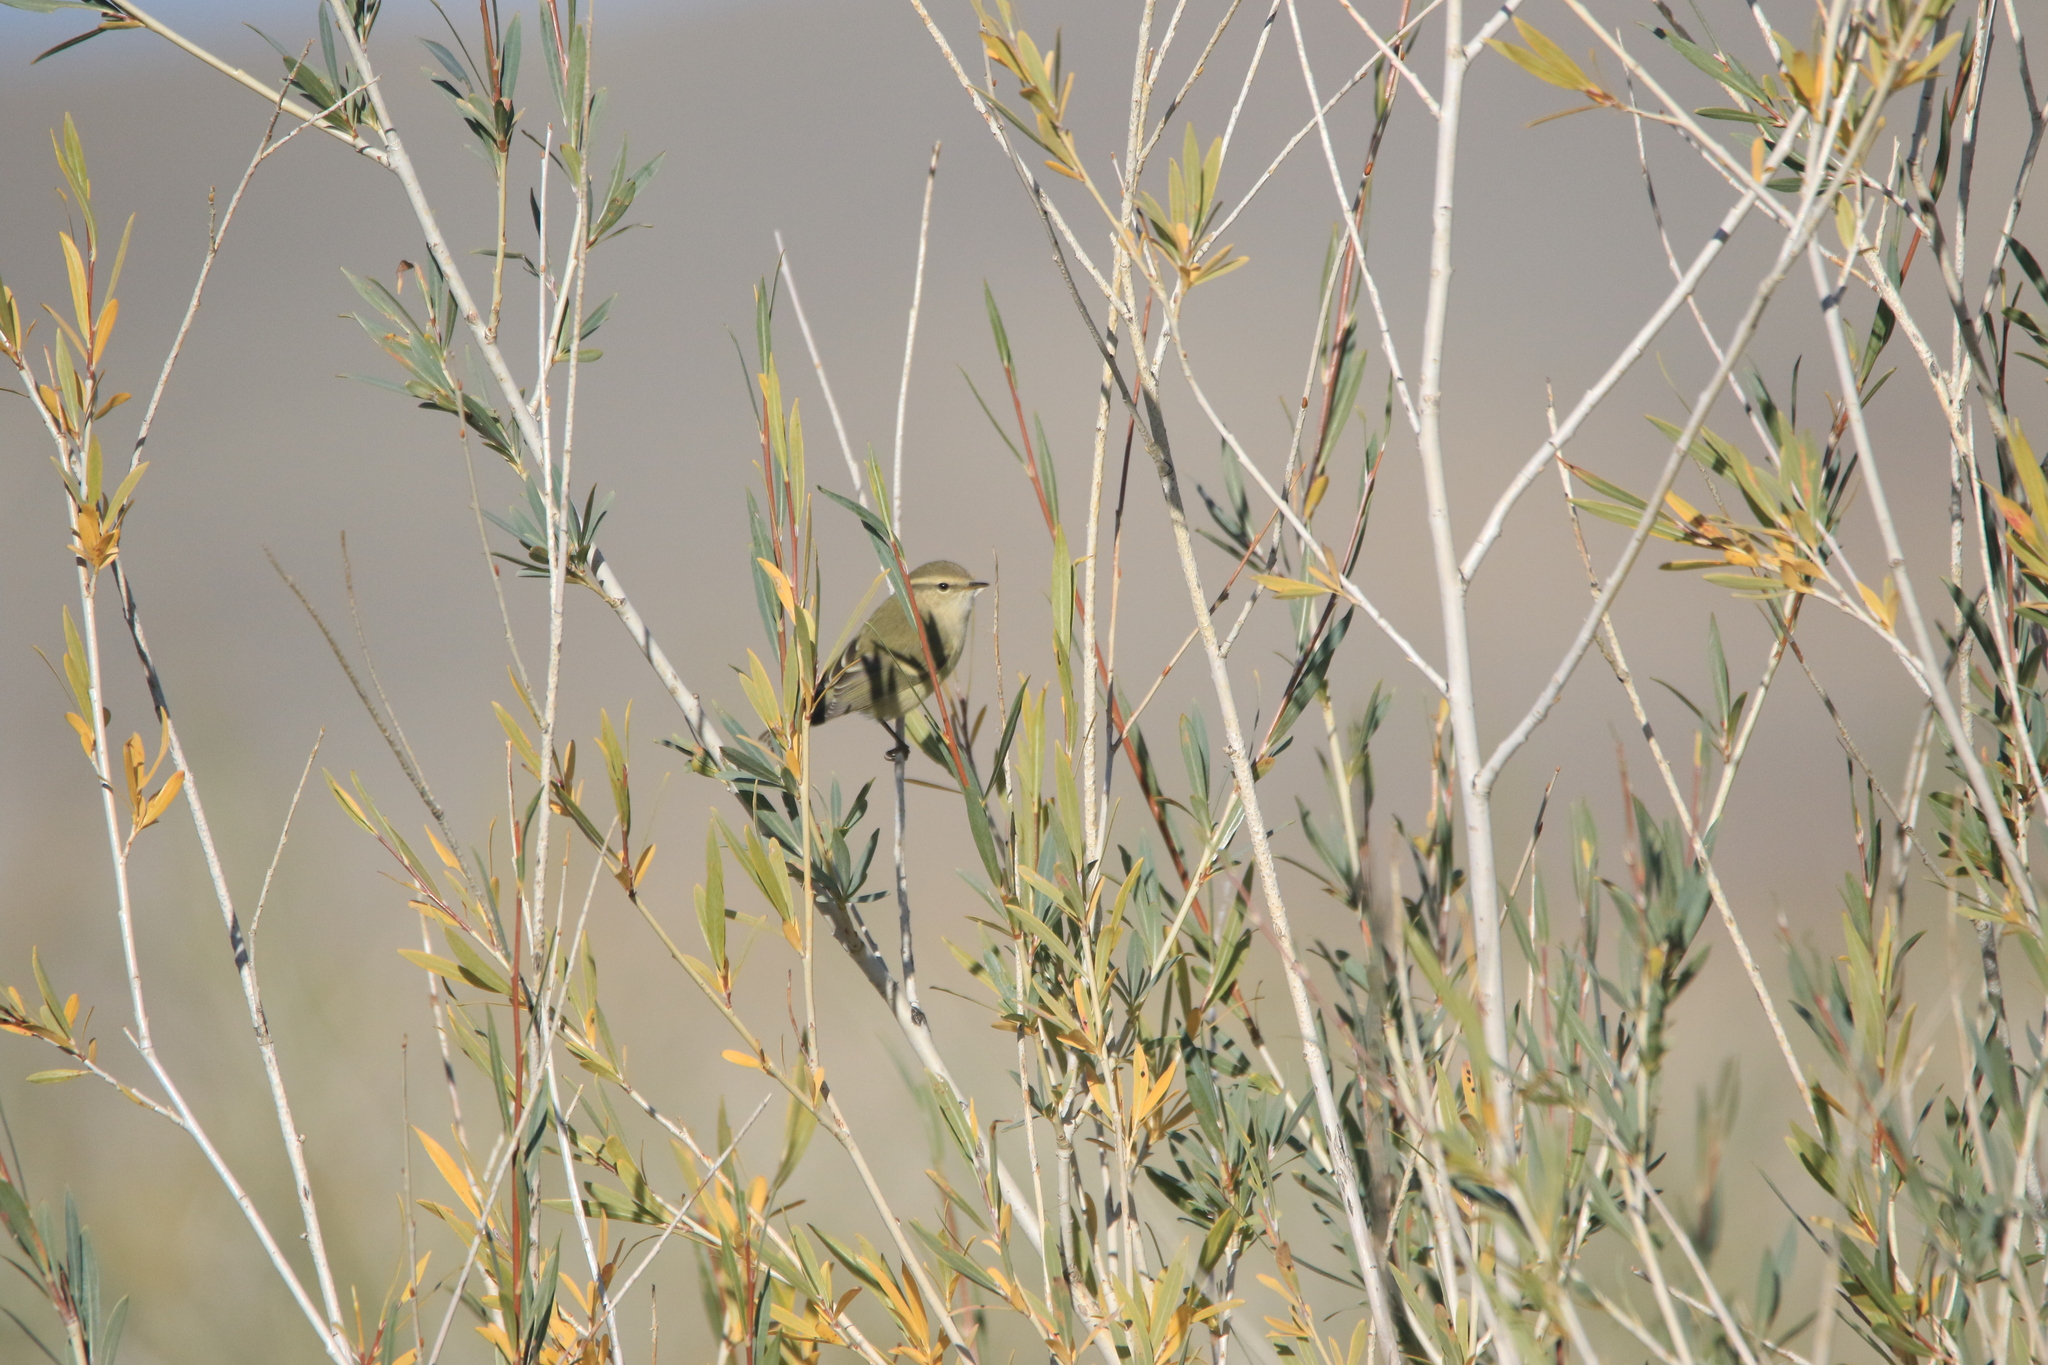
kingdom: Animalia
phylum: Chordata
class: Aves
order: Passeriformes
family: Phylloscopidae
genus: Phylloscopus
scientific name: Phylloscopus humei
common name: Hume's leaf warbler
